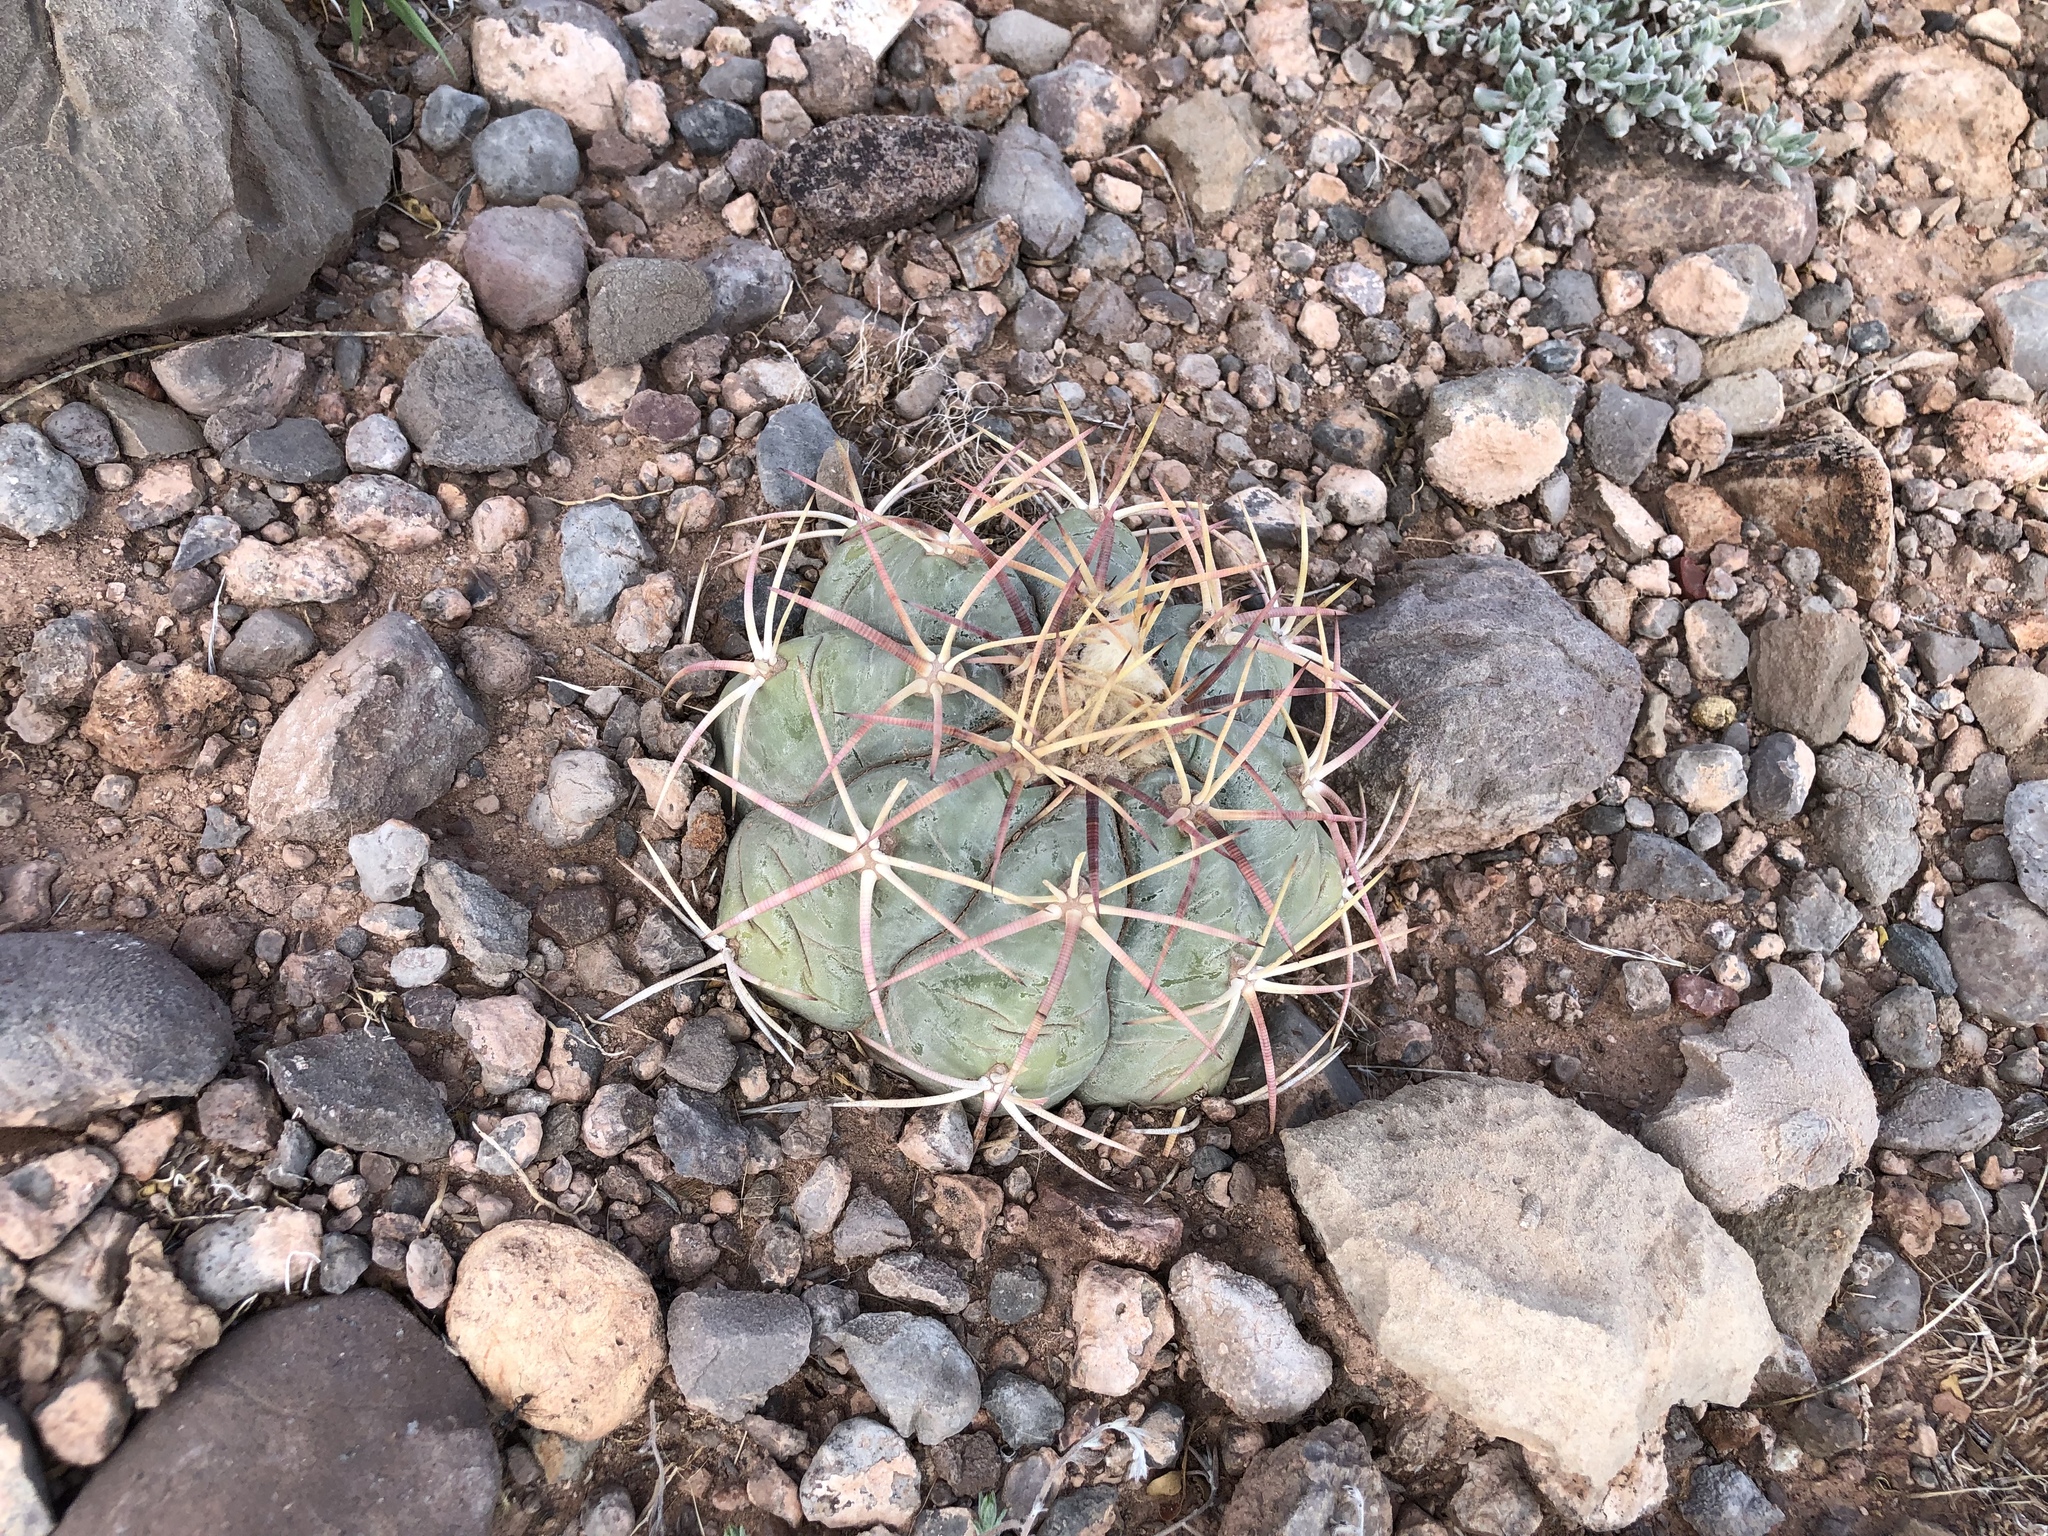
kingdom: Plantae
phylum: Tracheophyta
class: Magnoliopsida
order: Caryophyllales
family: Cactaceae
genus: Echinocactus
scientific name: Echinocactus horizonthalonius
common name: Devilshead
